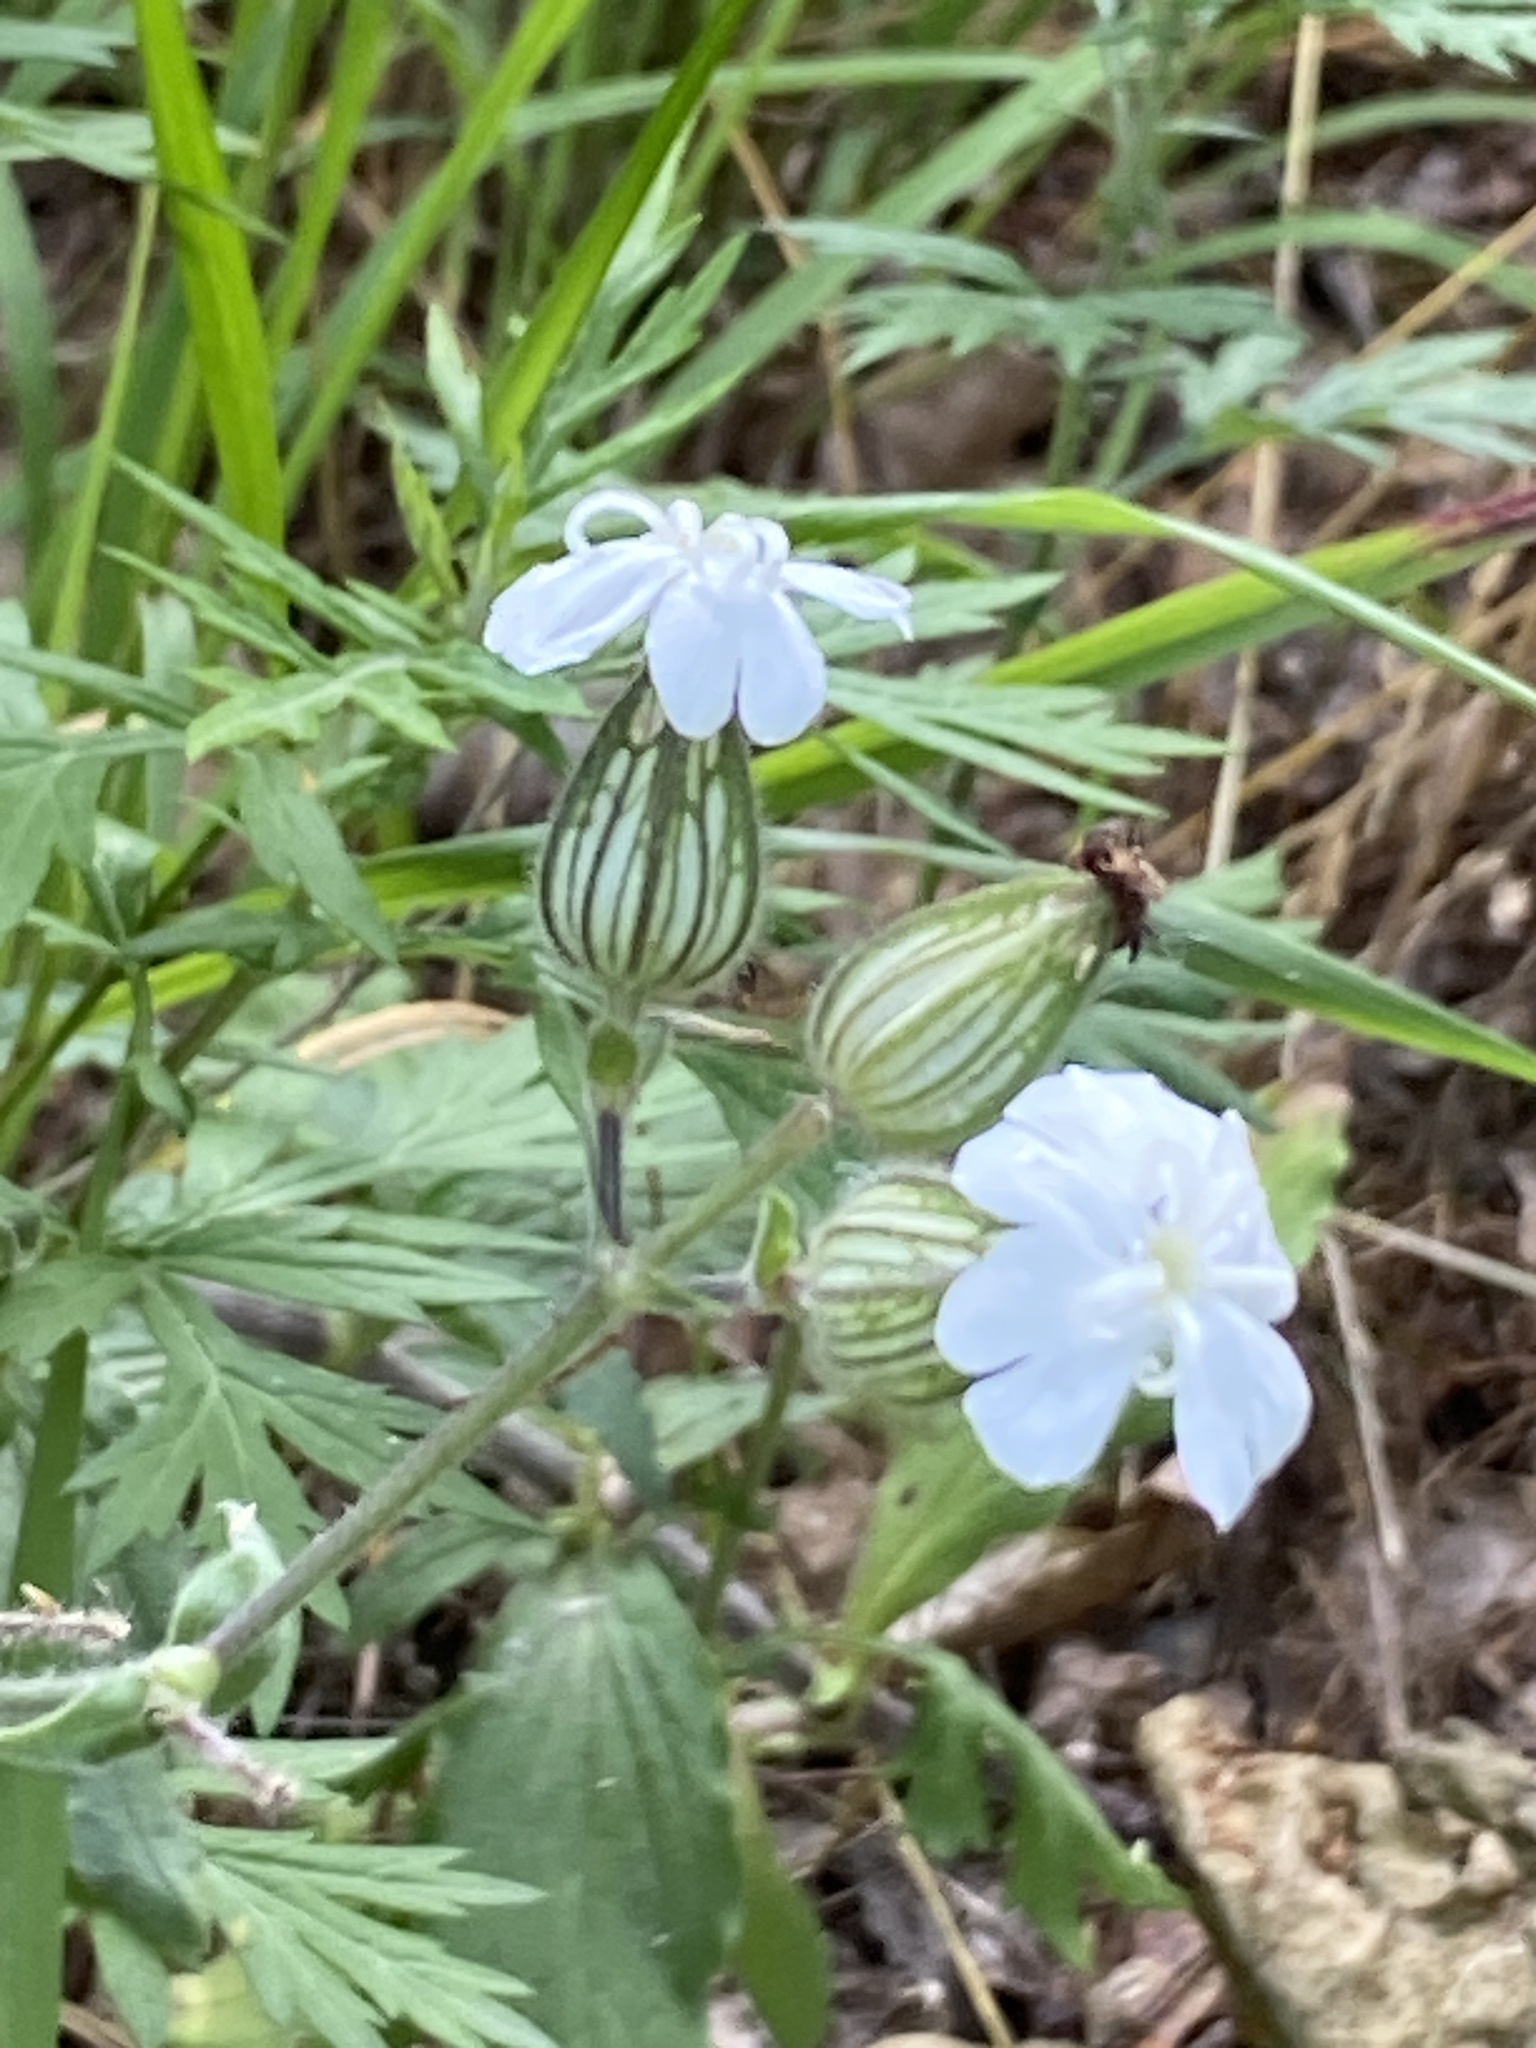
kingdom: Plantae
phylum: Tracheophyta
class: Magnoliopsida
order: Caryophyllales
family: Caryophyllaceae
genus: Silene
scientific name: Silene latifolia
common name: White campion
